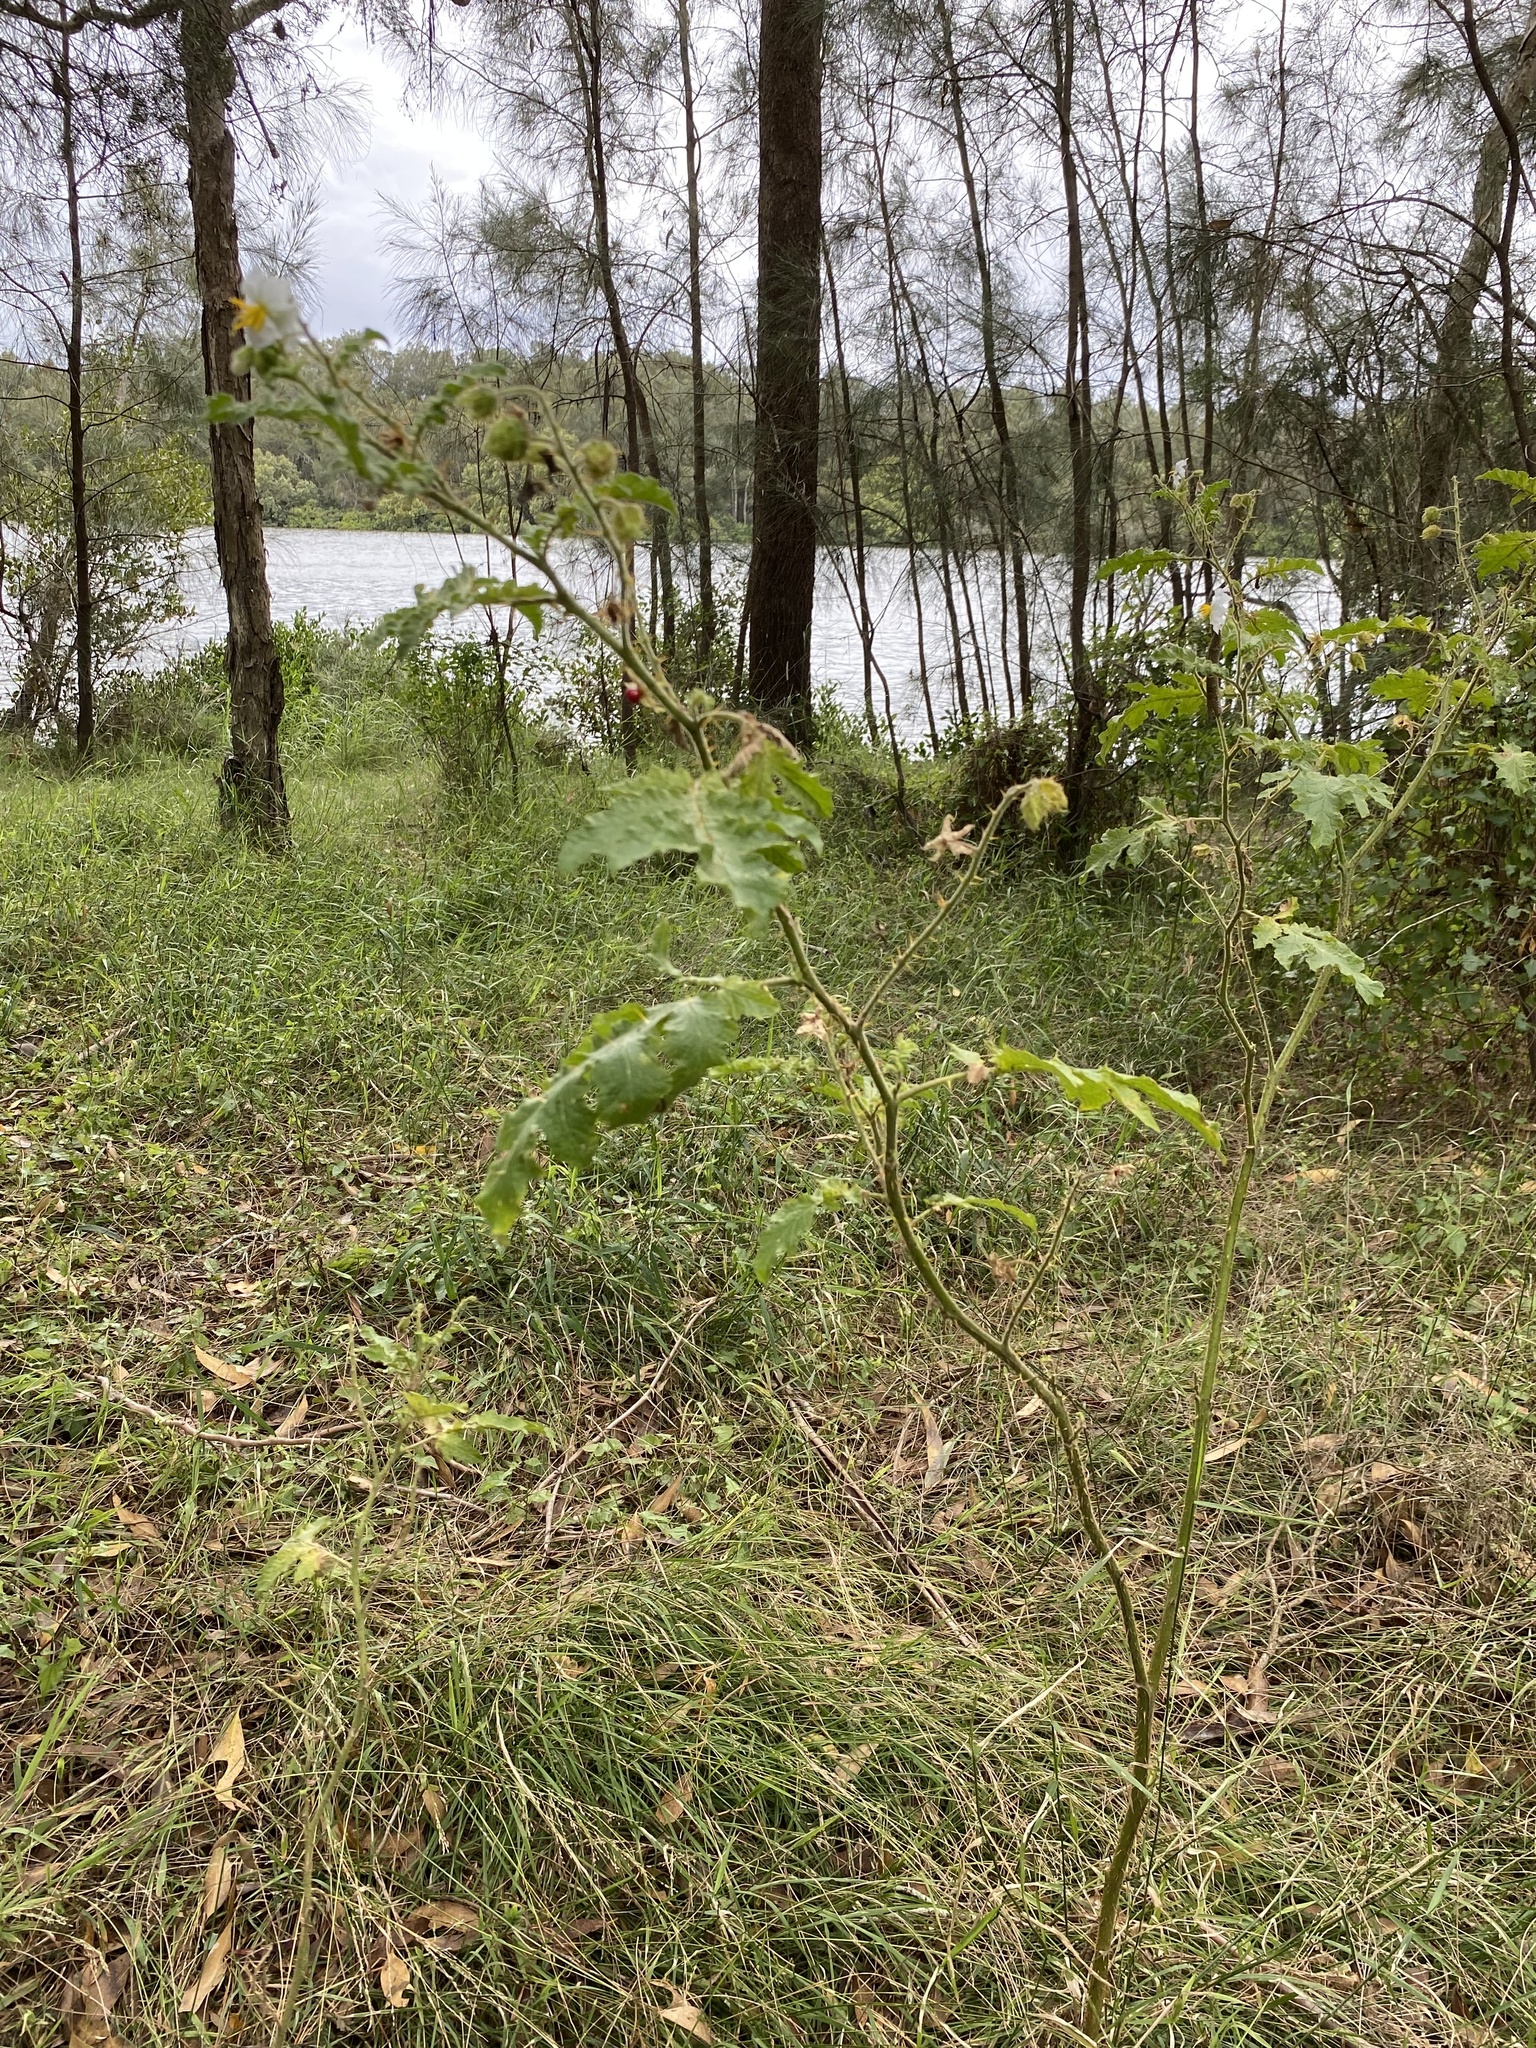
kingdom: Plantae
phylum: Tracheophyta
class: Magnoliopsida
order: Solanales
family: Solanaceae
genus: Solanum
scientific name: Solanum sisymbriifolium
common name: Red buffalo-bur
